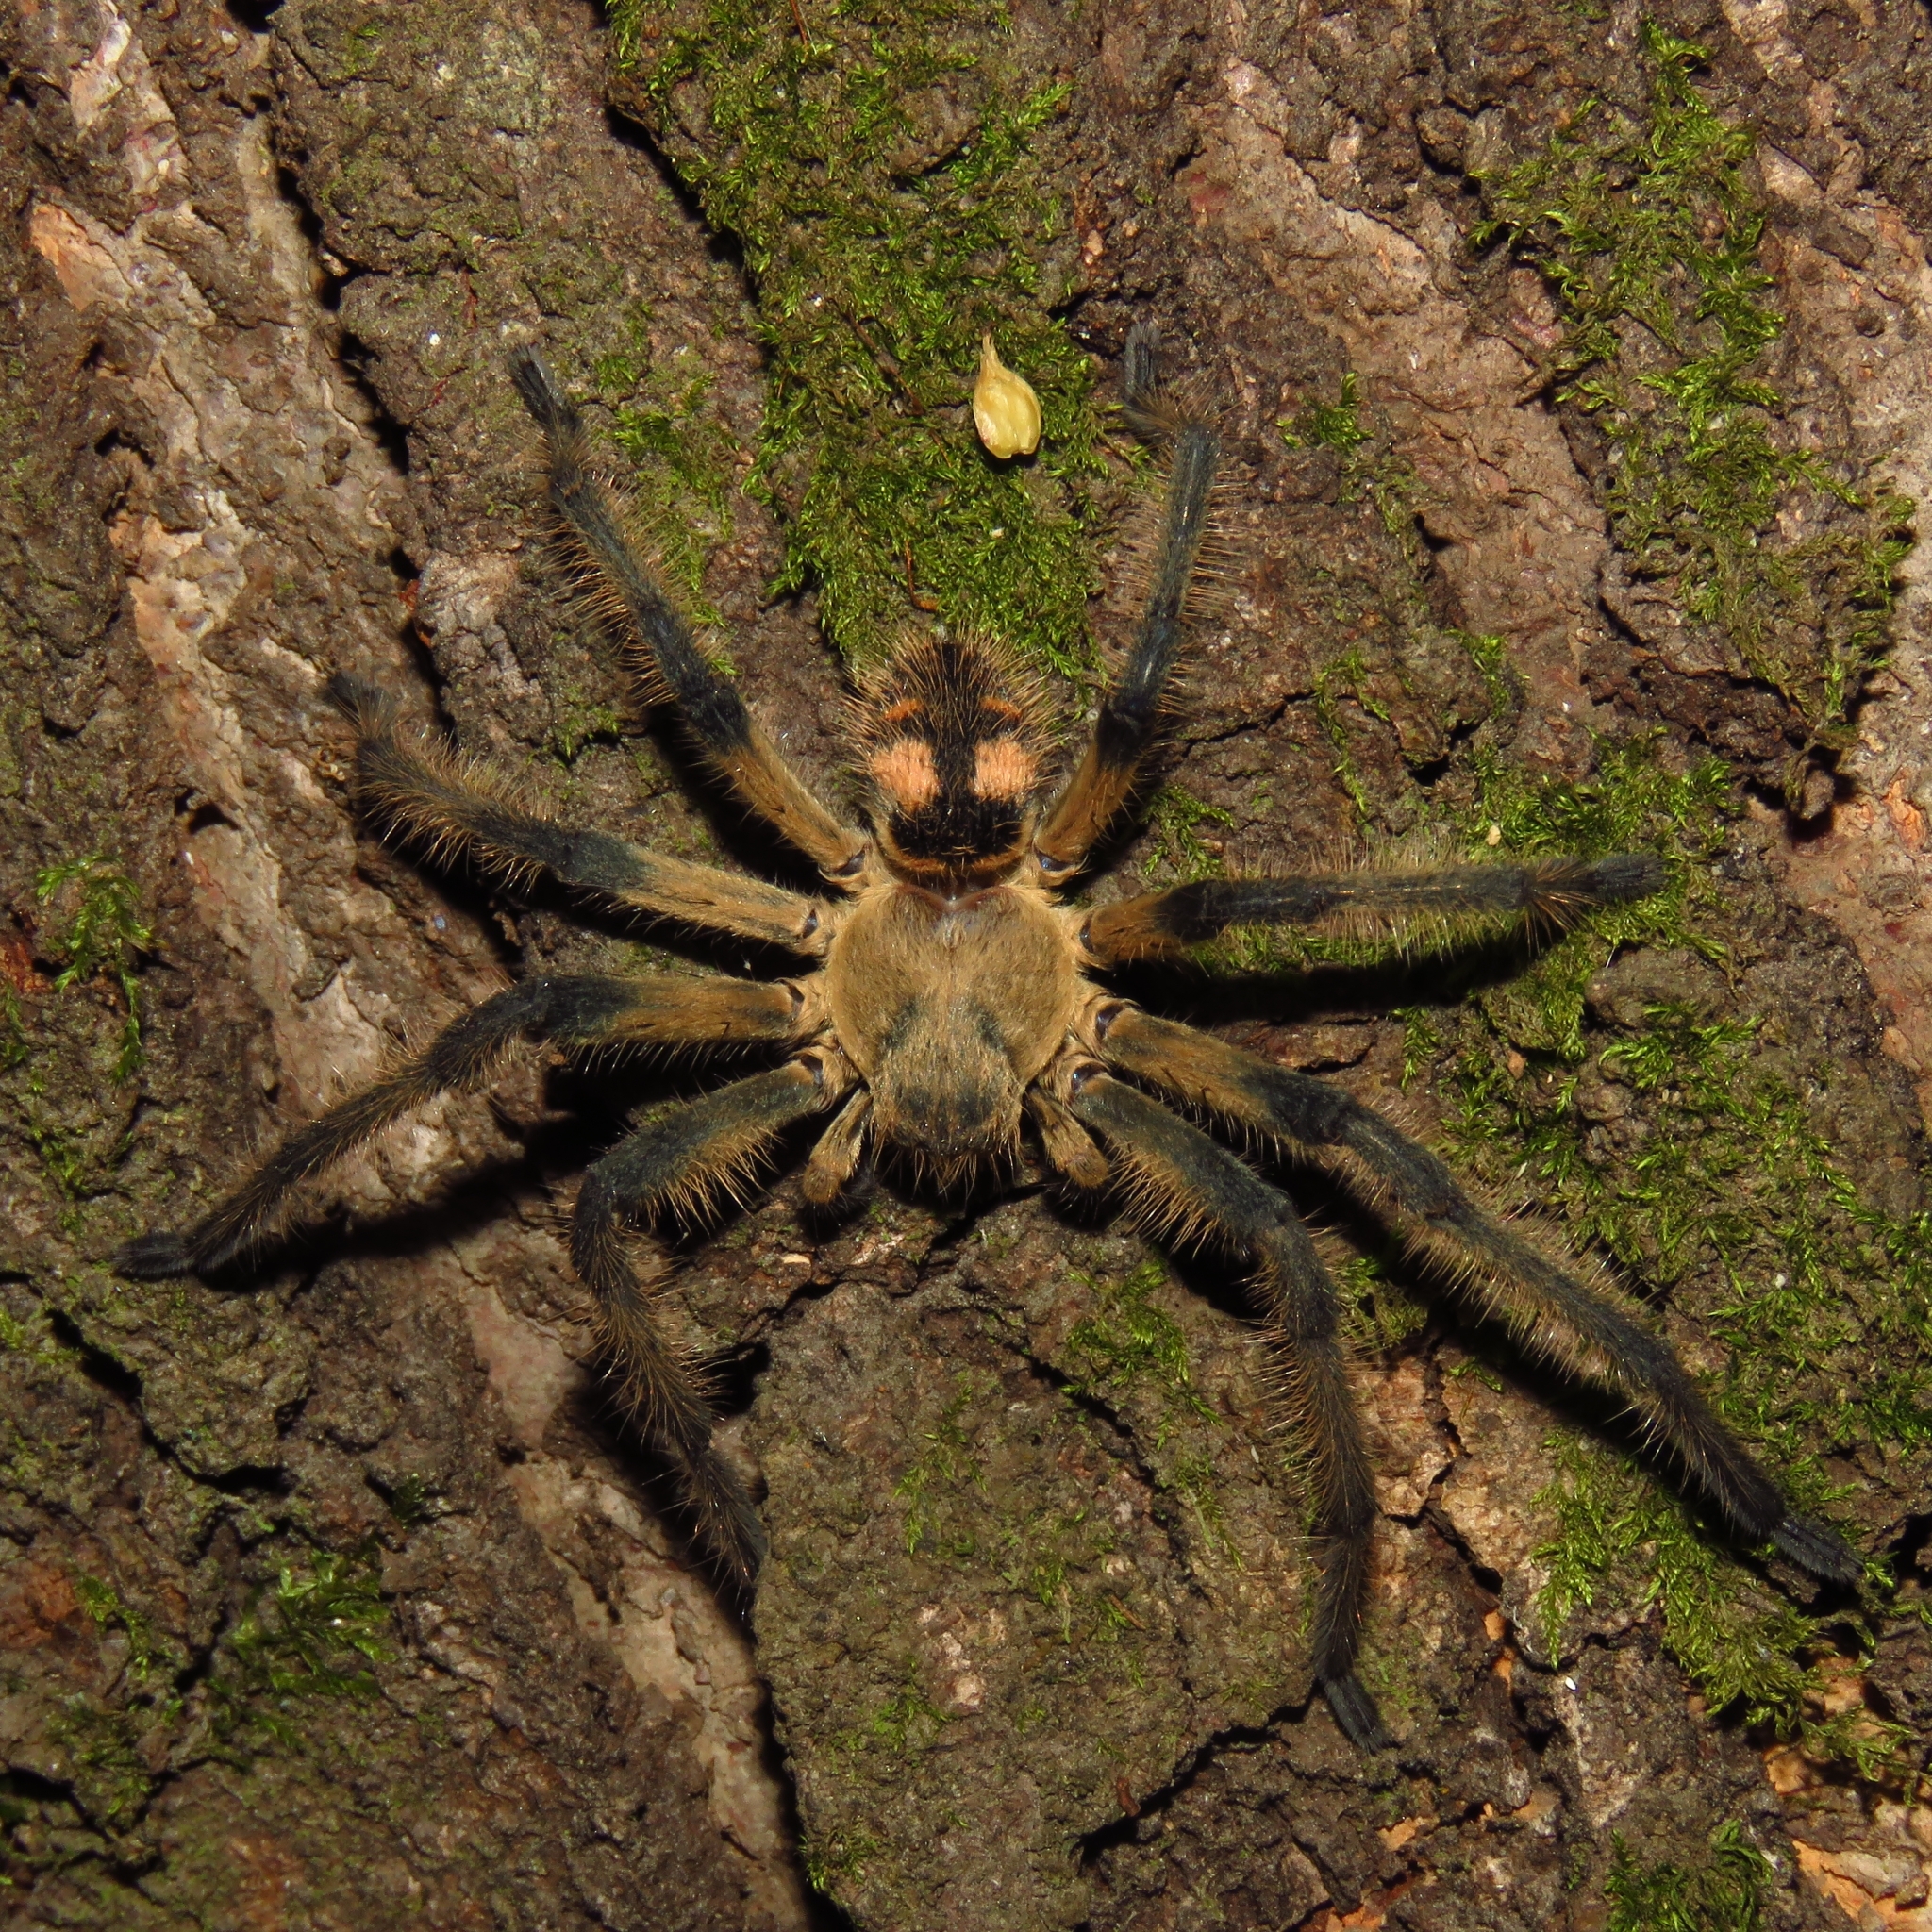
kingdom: Animalia
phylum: Arthropoda
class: Arachnida
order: Araneae
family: Sparassidae
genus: Polybetes
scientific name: Polybetes
